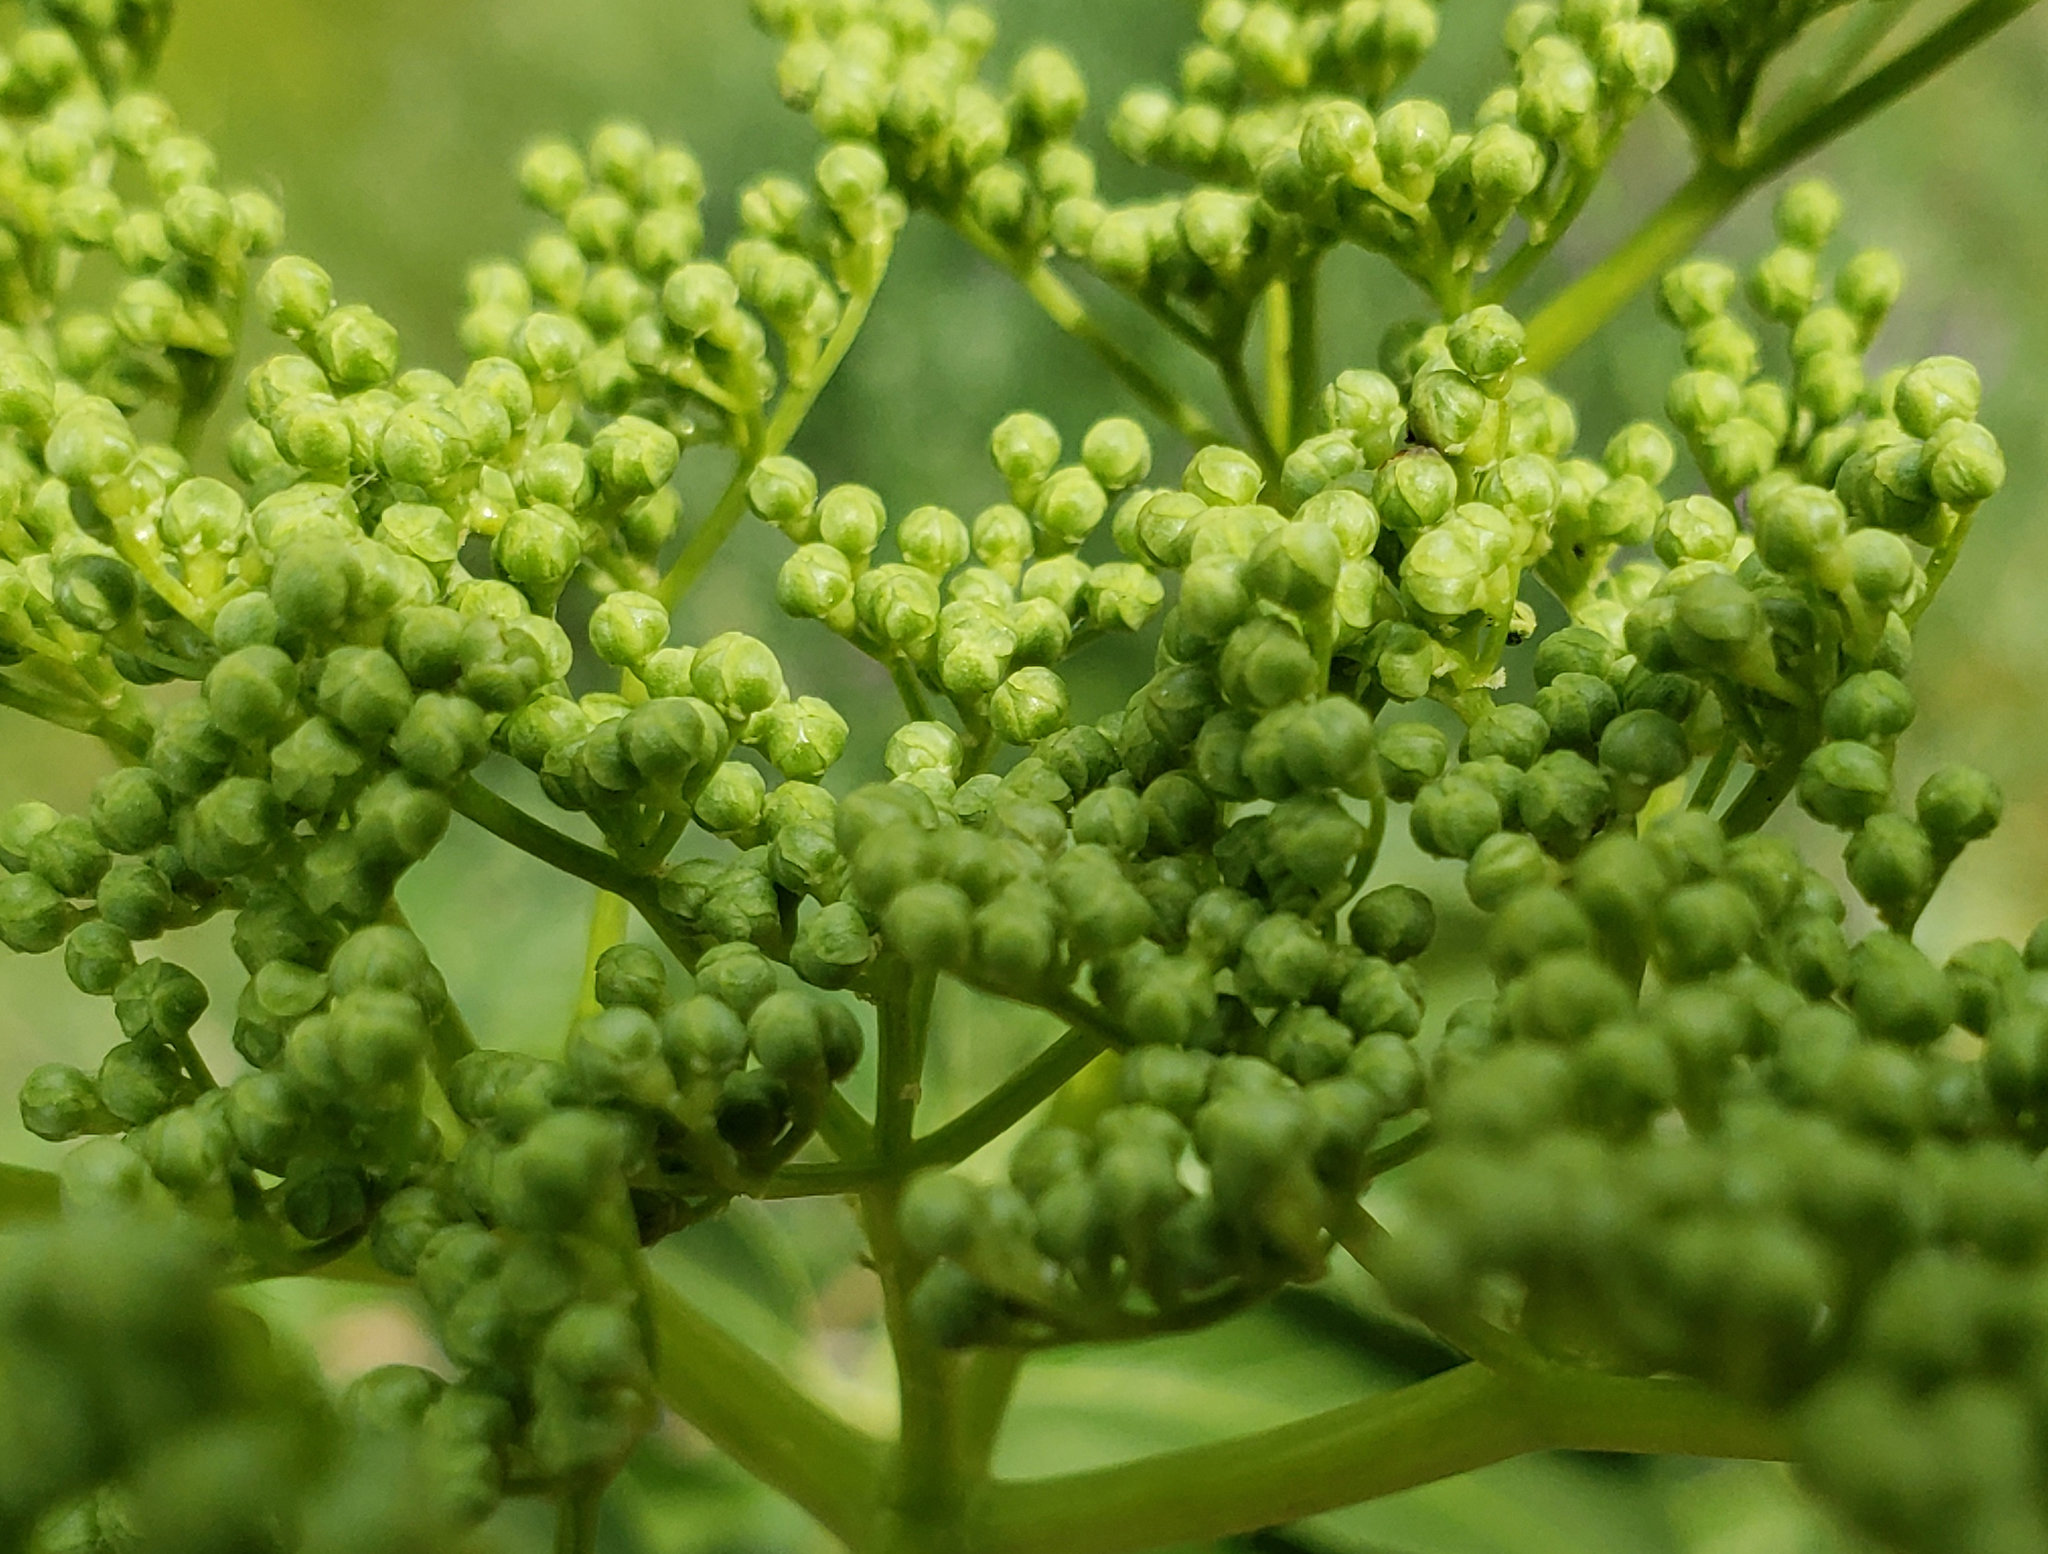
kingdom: Plantae
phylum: Tracheophyta
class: Magnoliopsida
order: Dipsacales
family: Viburnaceae
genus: Sambucus
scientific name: Sambucus cerulea
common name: Blue elder
